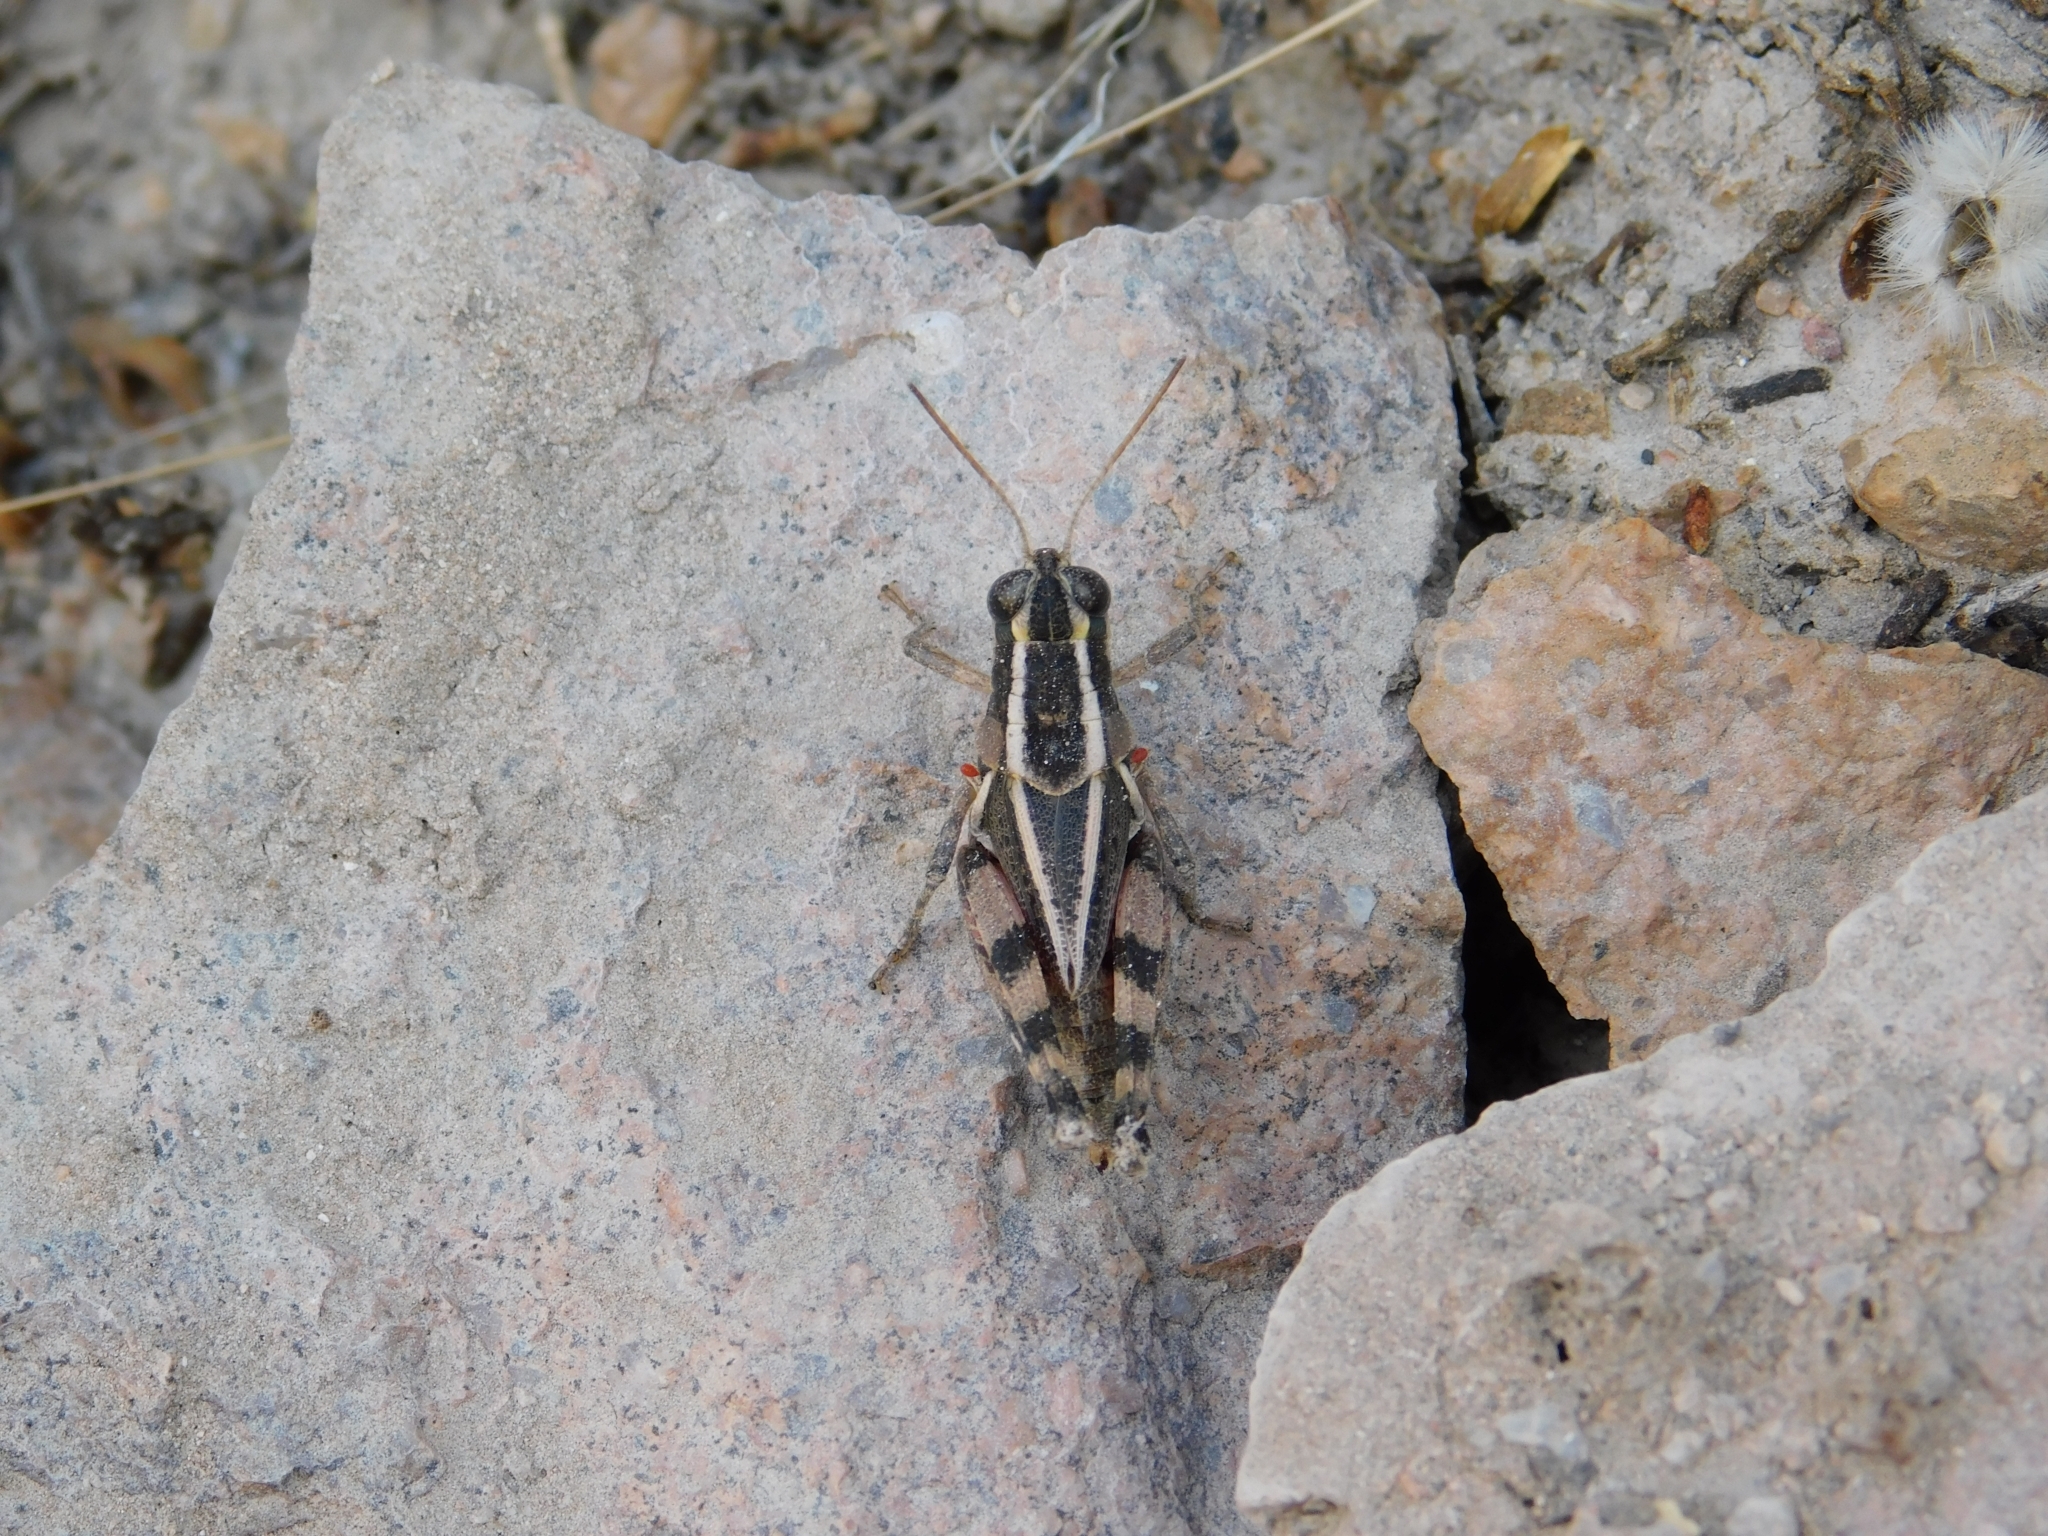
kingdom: Animalia
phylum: Arthropoda
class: Insecta
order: Orthoptera
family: Acrididae
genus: Dichroplus
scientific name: Dichroplus vittatus
